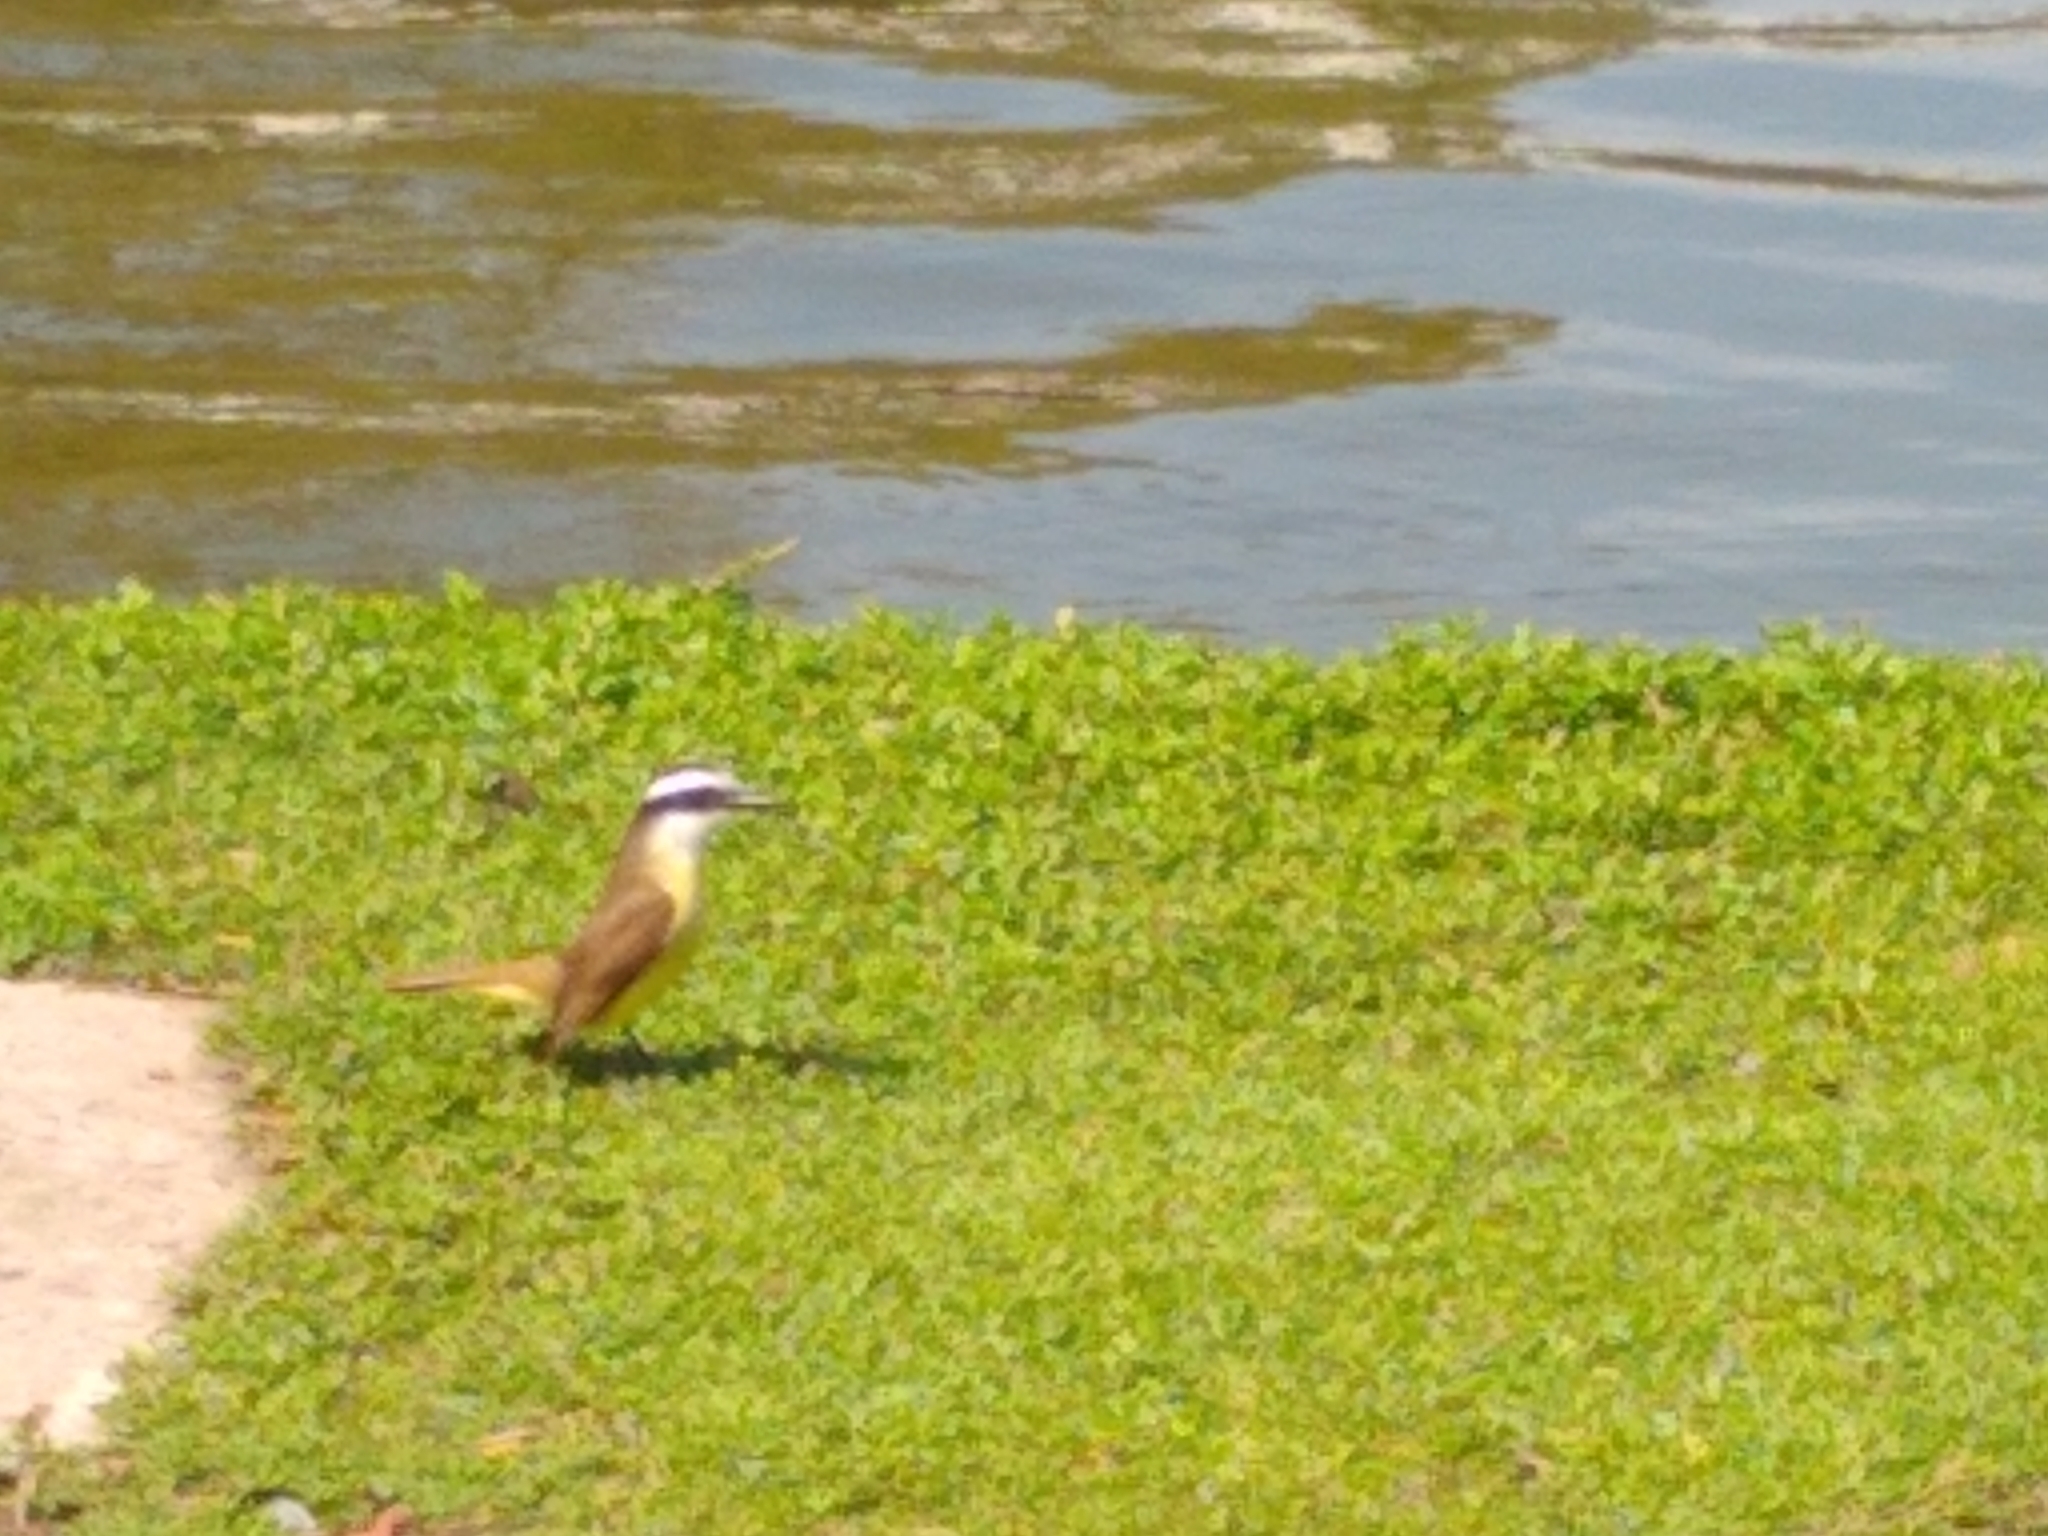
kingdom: Animalia
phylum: Chordata
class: Aves
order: Passeriformes
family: Tyrannidae
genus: Pitangus
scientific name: Pitangus sulphuratus
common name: Great kiskadee
